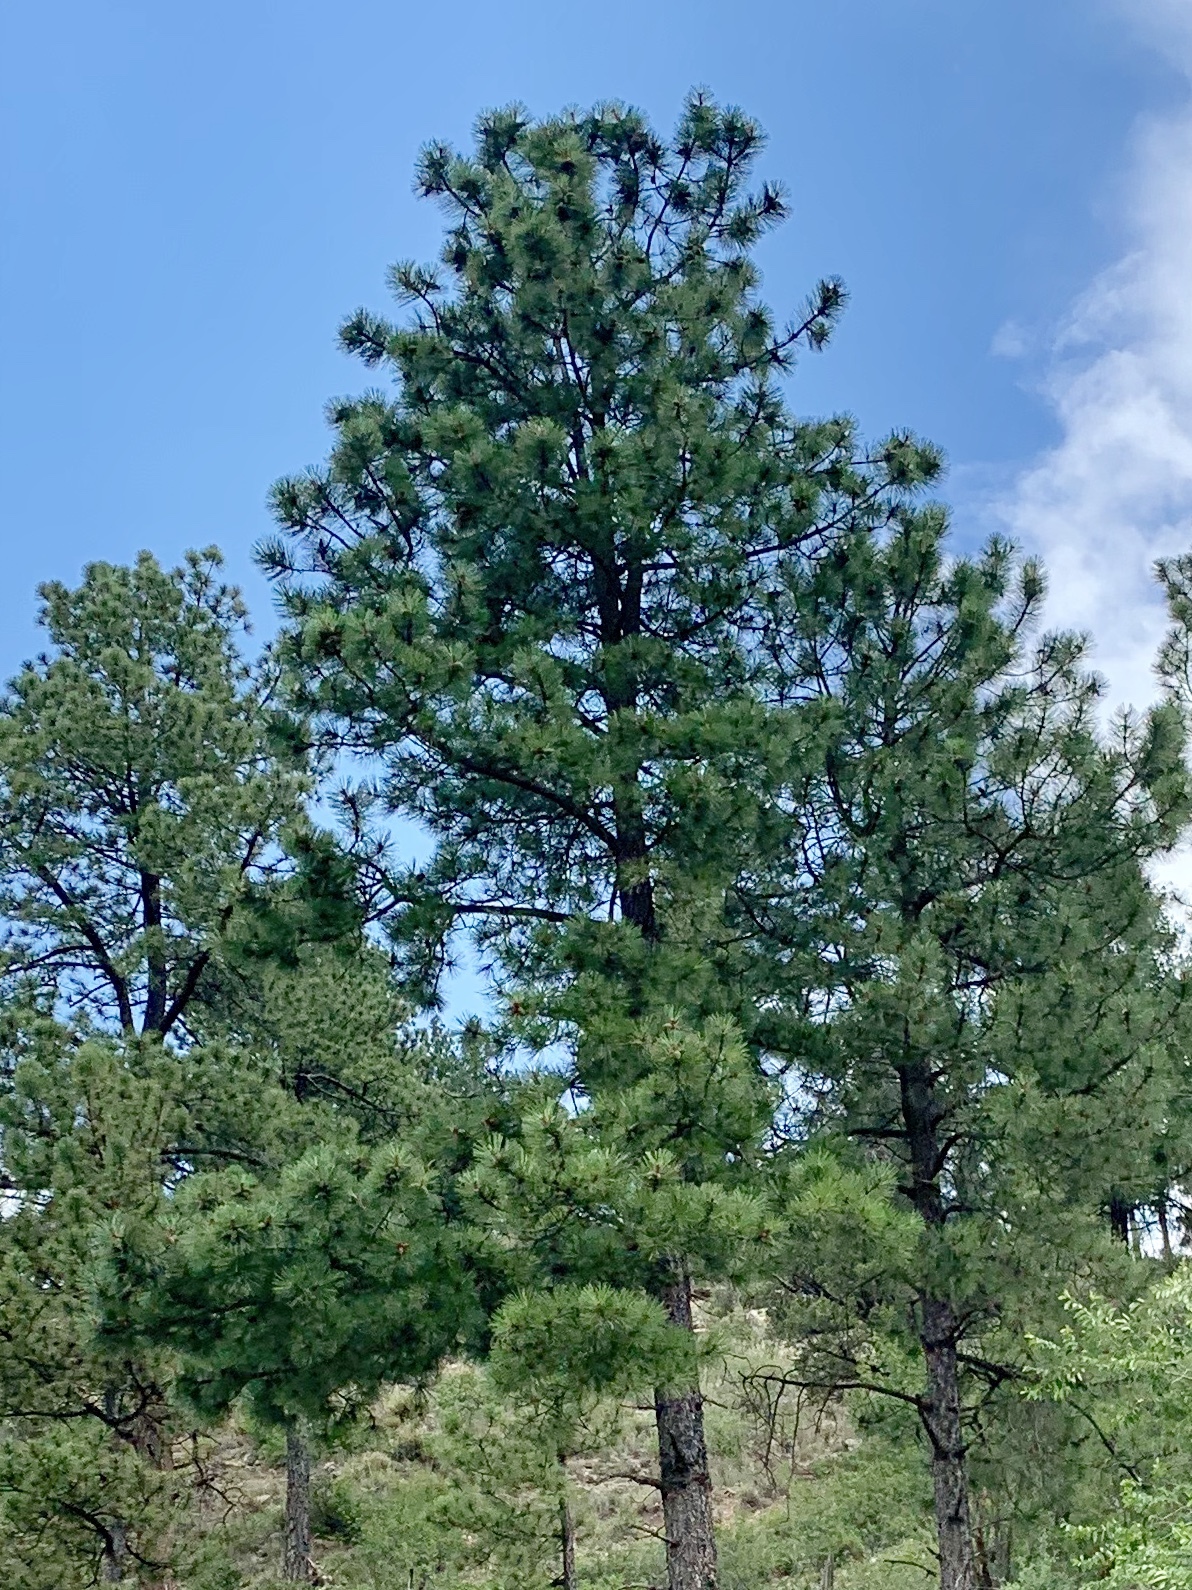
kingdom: Plantae
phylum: Tracheophyta
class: Pinopsida
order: Pinales
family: Pinaceae
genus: Pinus
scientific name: Pinus ponderosa
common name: Western yellow-pine
